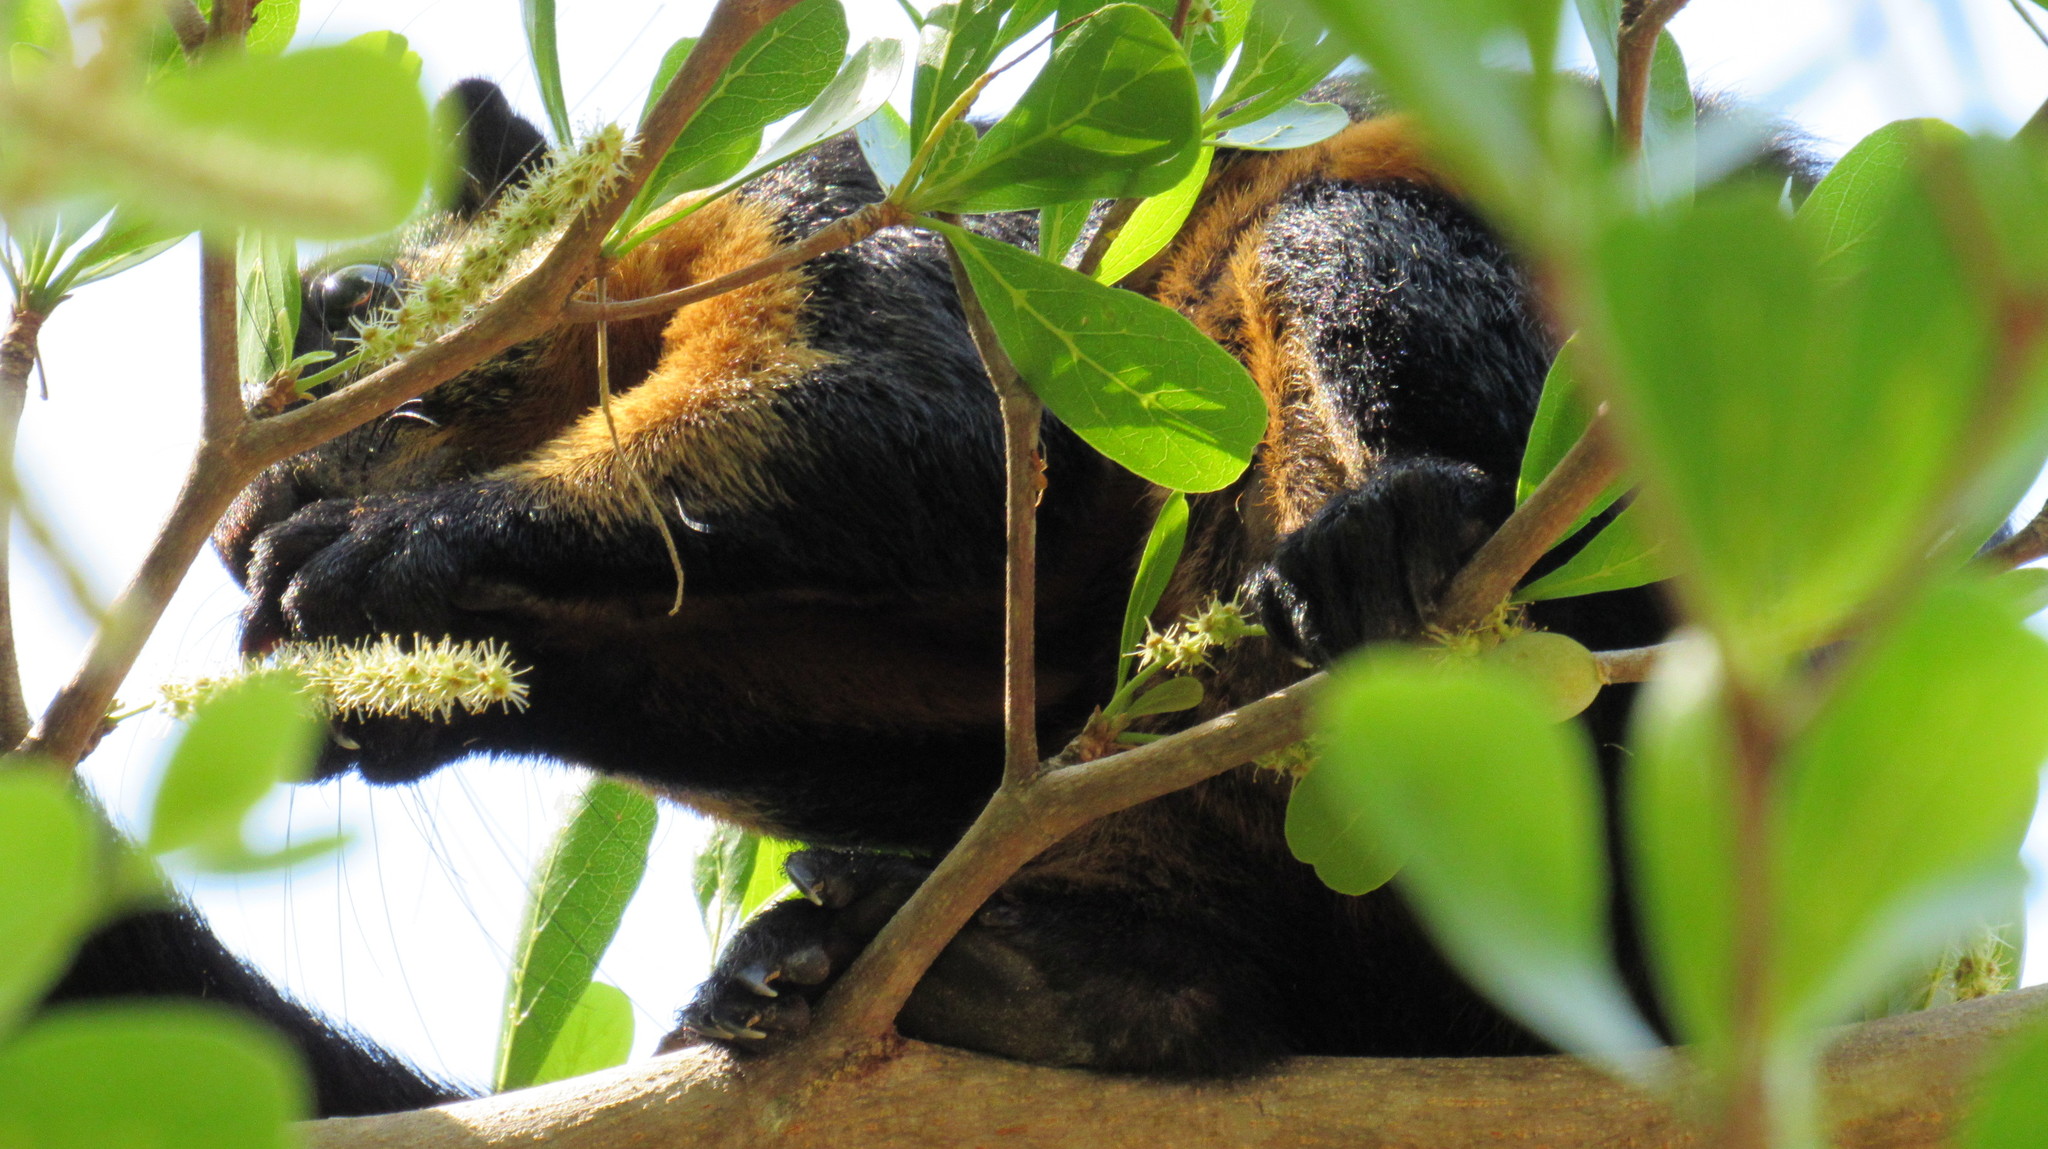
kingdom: Animalia
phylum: Chordata
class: Mammalia
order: Rodentia
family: Sciuridae
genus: Ratufa
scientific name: Ratufa bicolor
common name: Black giant squirrel
